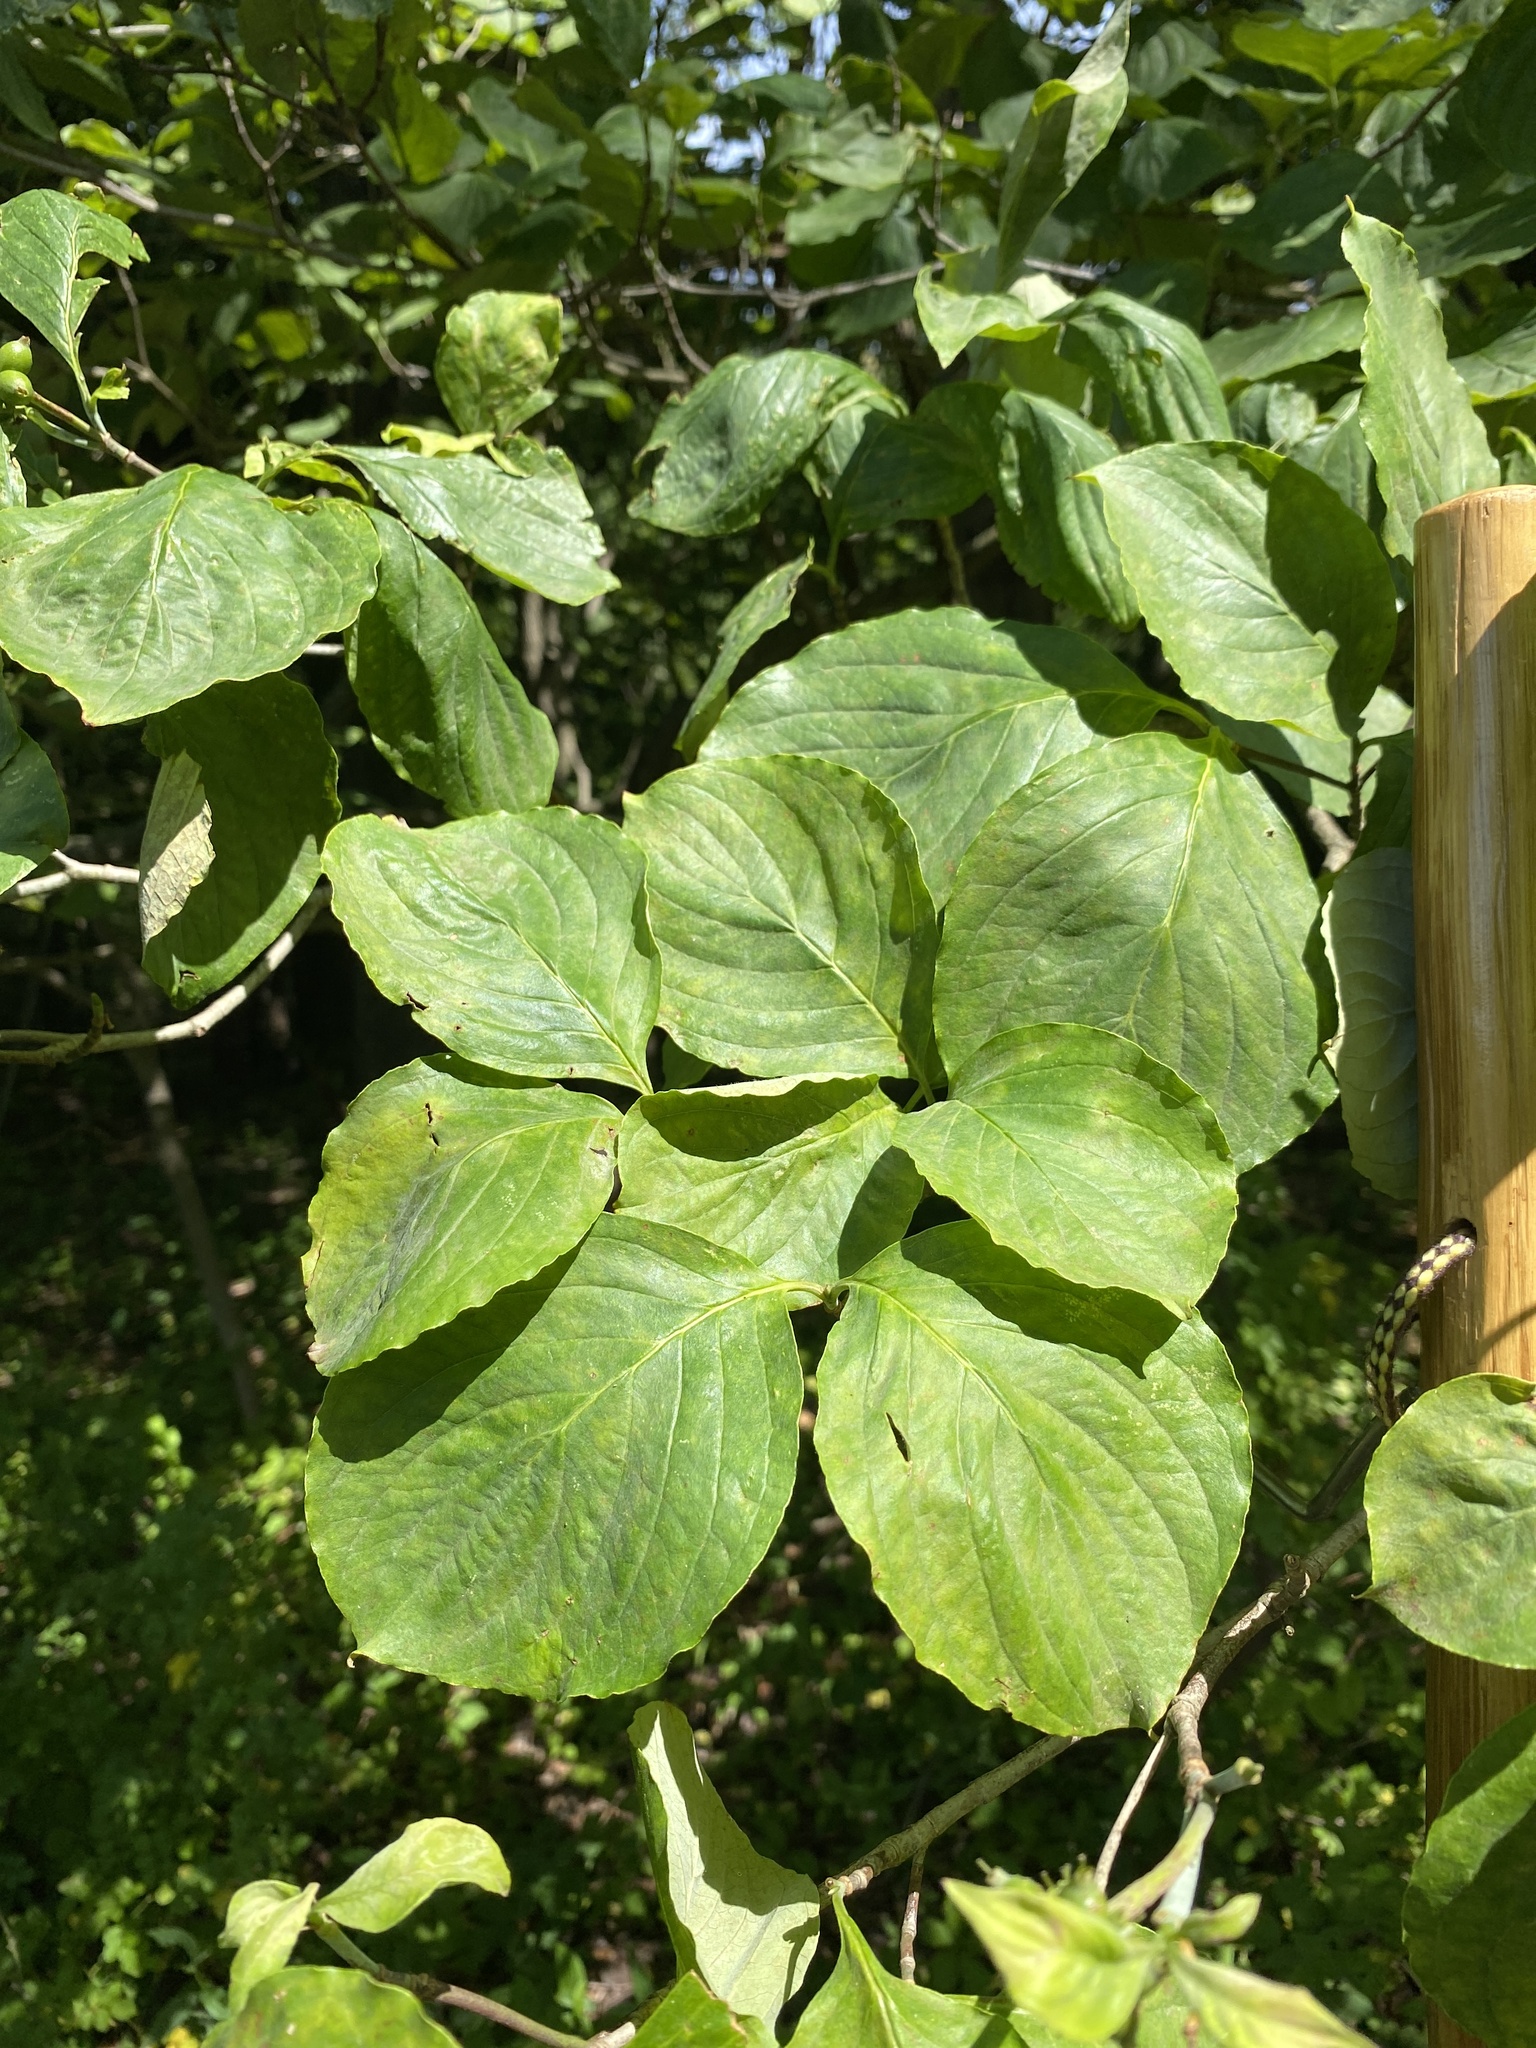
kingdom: Plantae
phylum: Tracheophyta
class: Magnoliopsida
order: Cornales
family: Cornaceae
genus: Cornus
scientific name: Cornus florida
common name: Flowering dogwood
